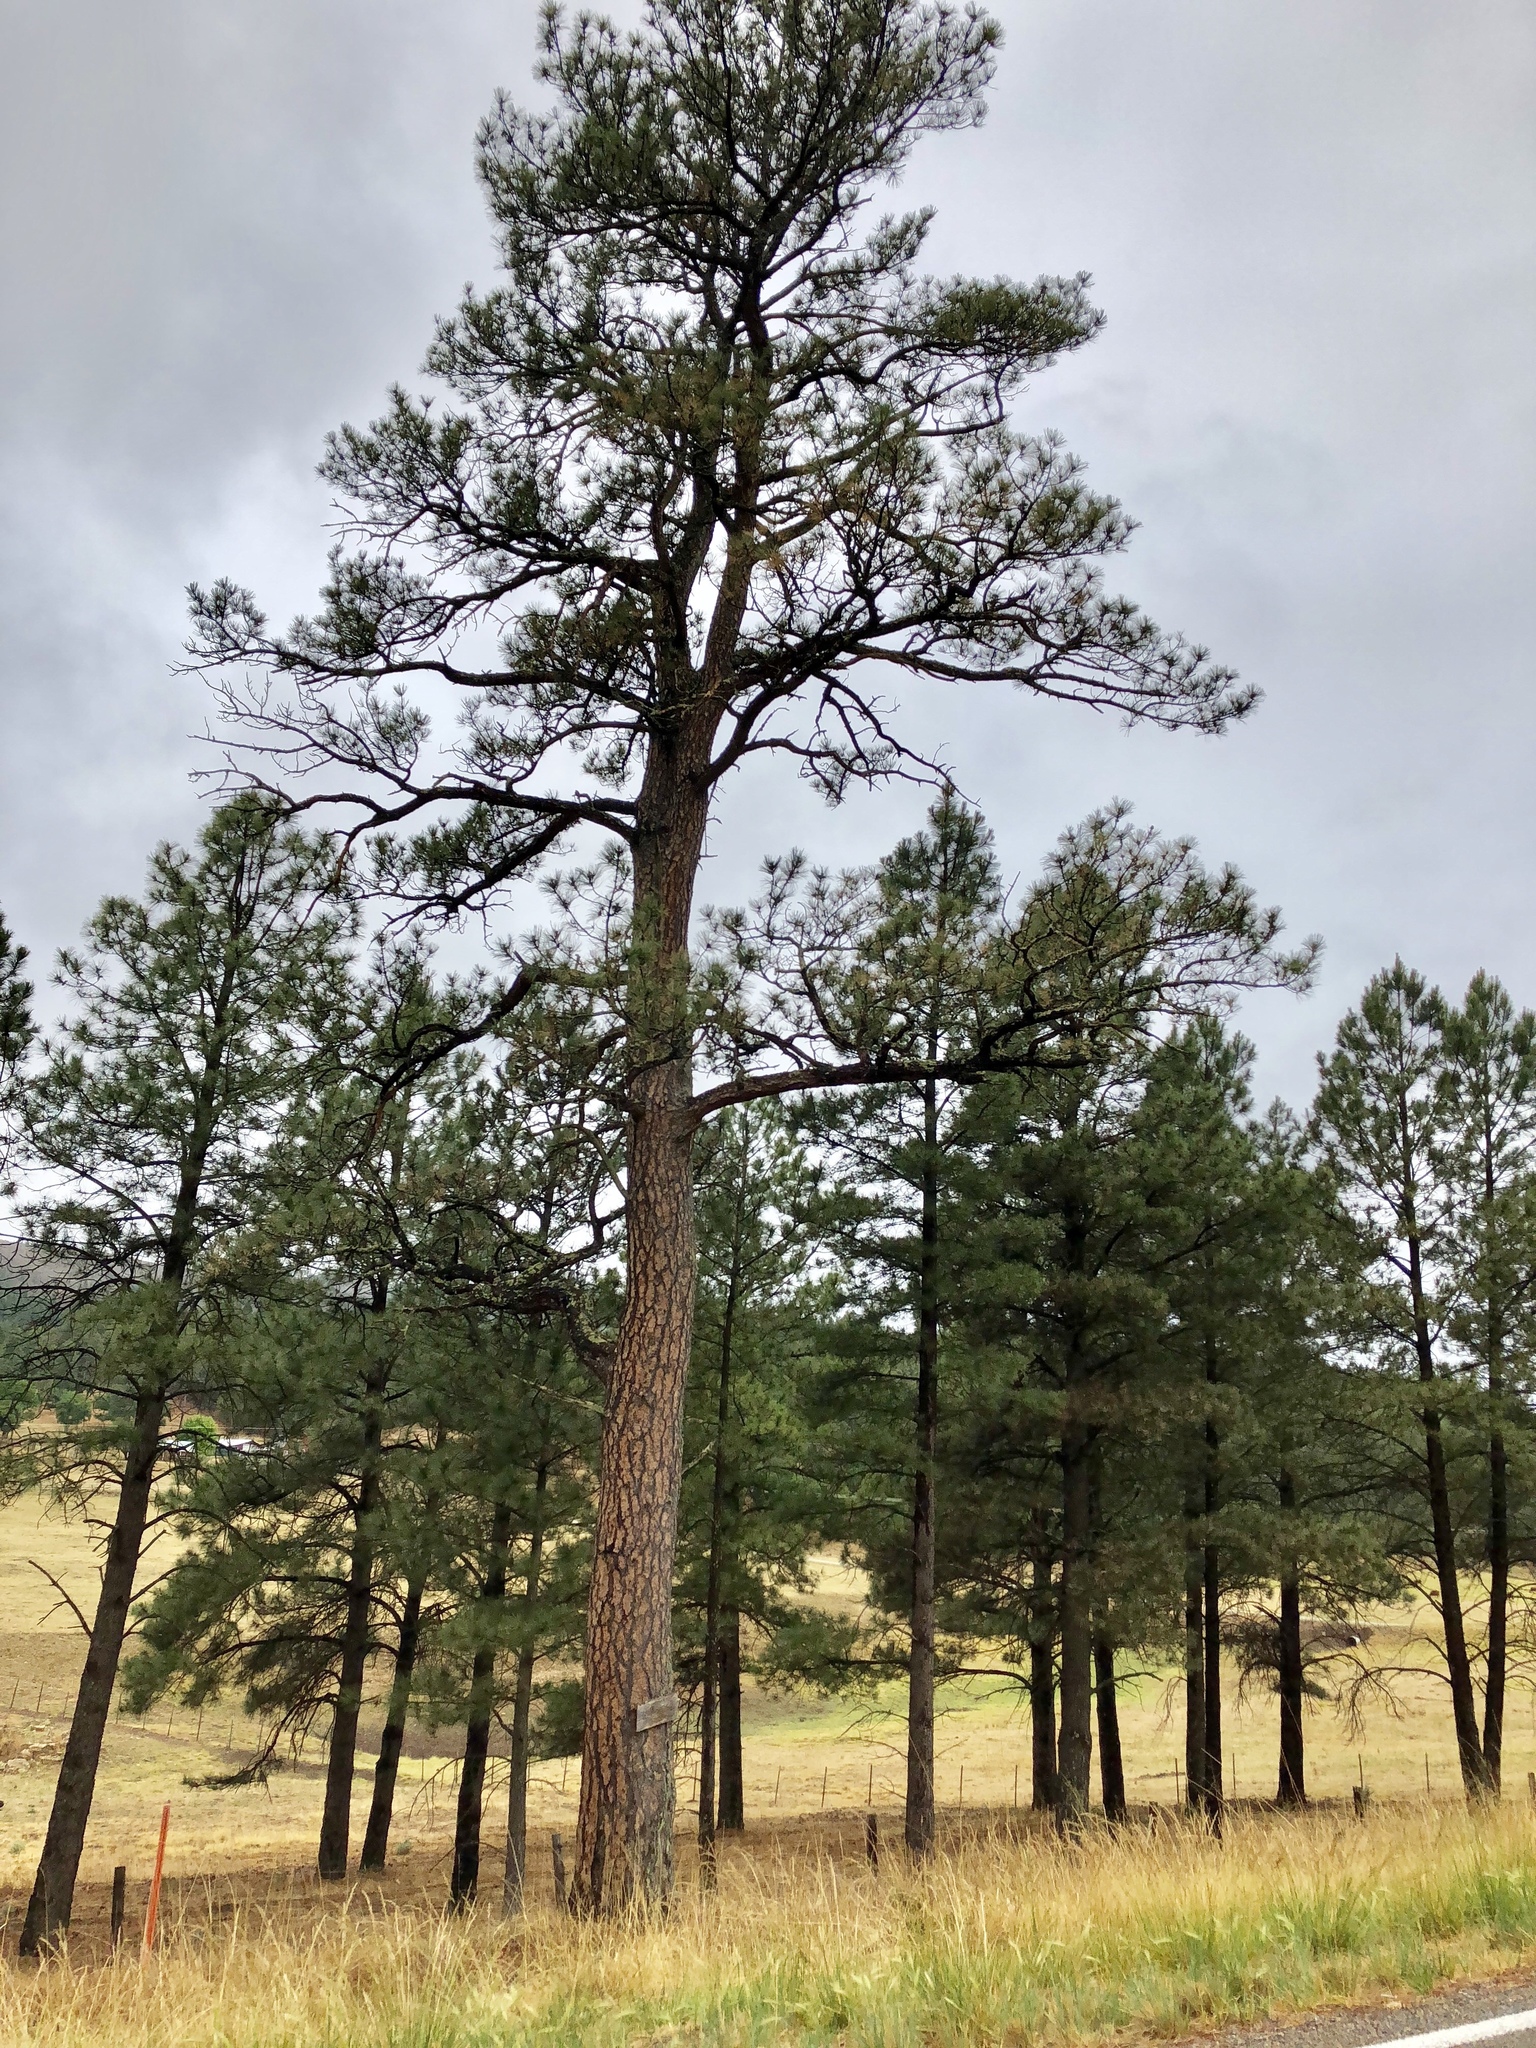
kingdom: Plantae
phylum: Tracheophyta
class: Pinopsida
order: Pinales
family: Pinaceae
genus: Pinus
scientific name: Pinus ponderosa
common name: Western yellow-pine
